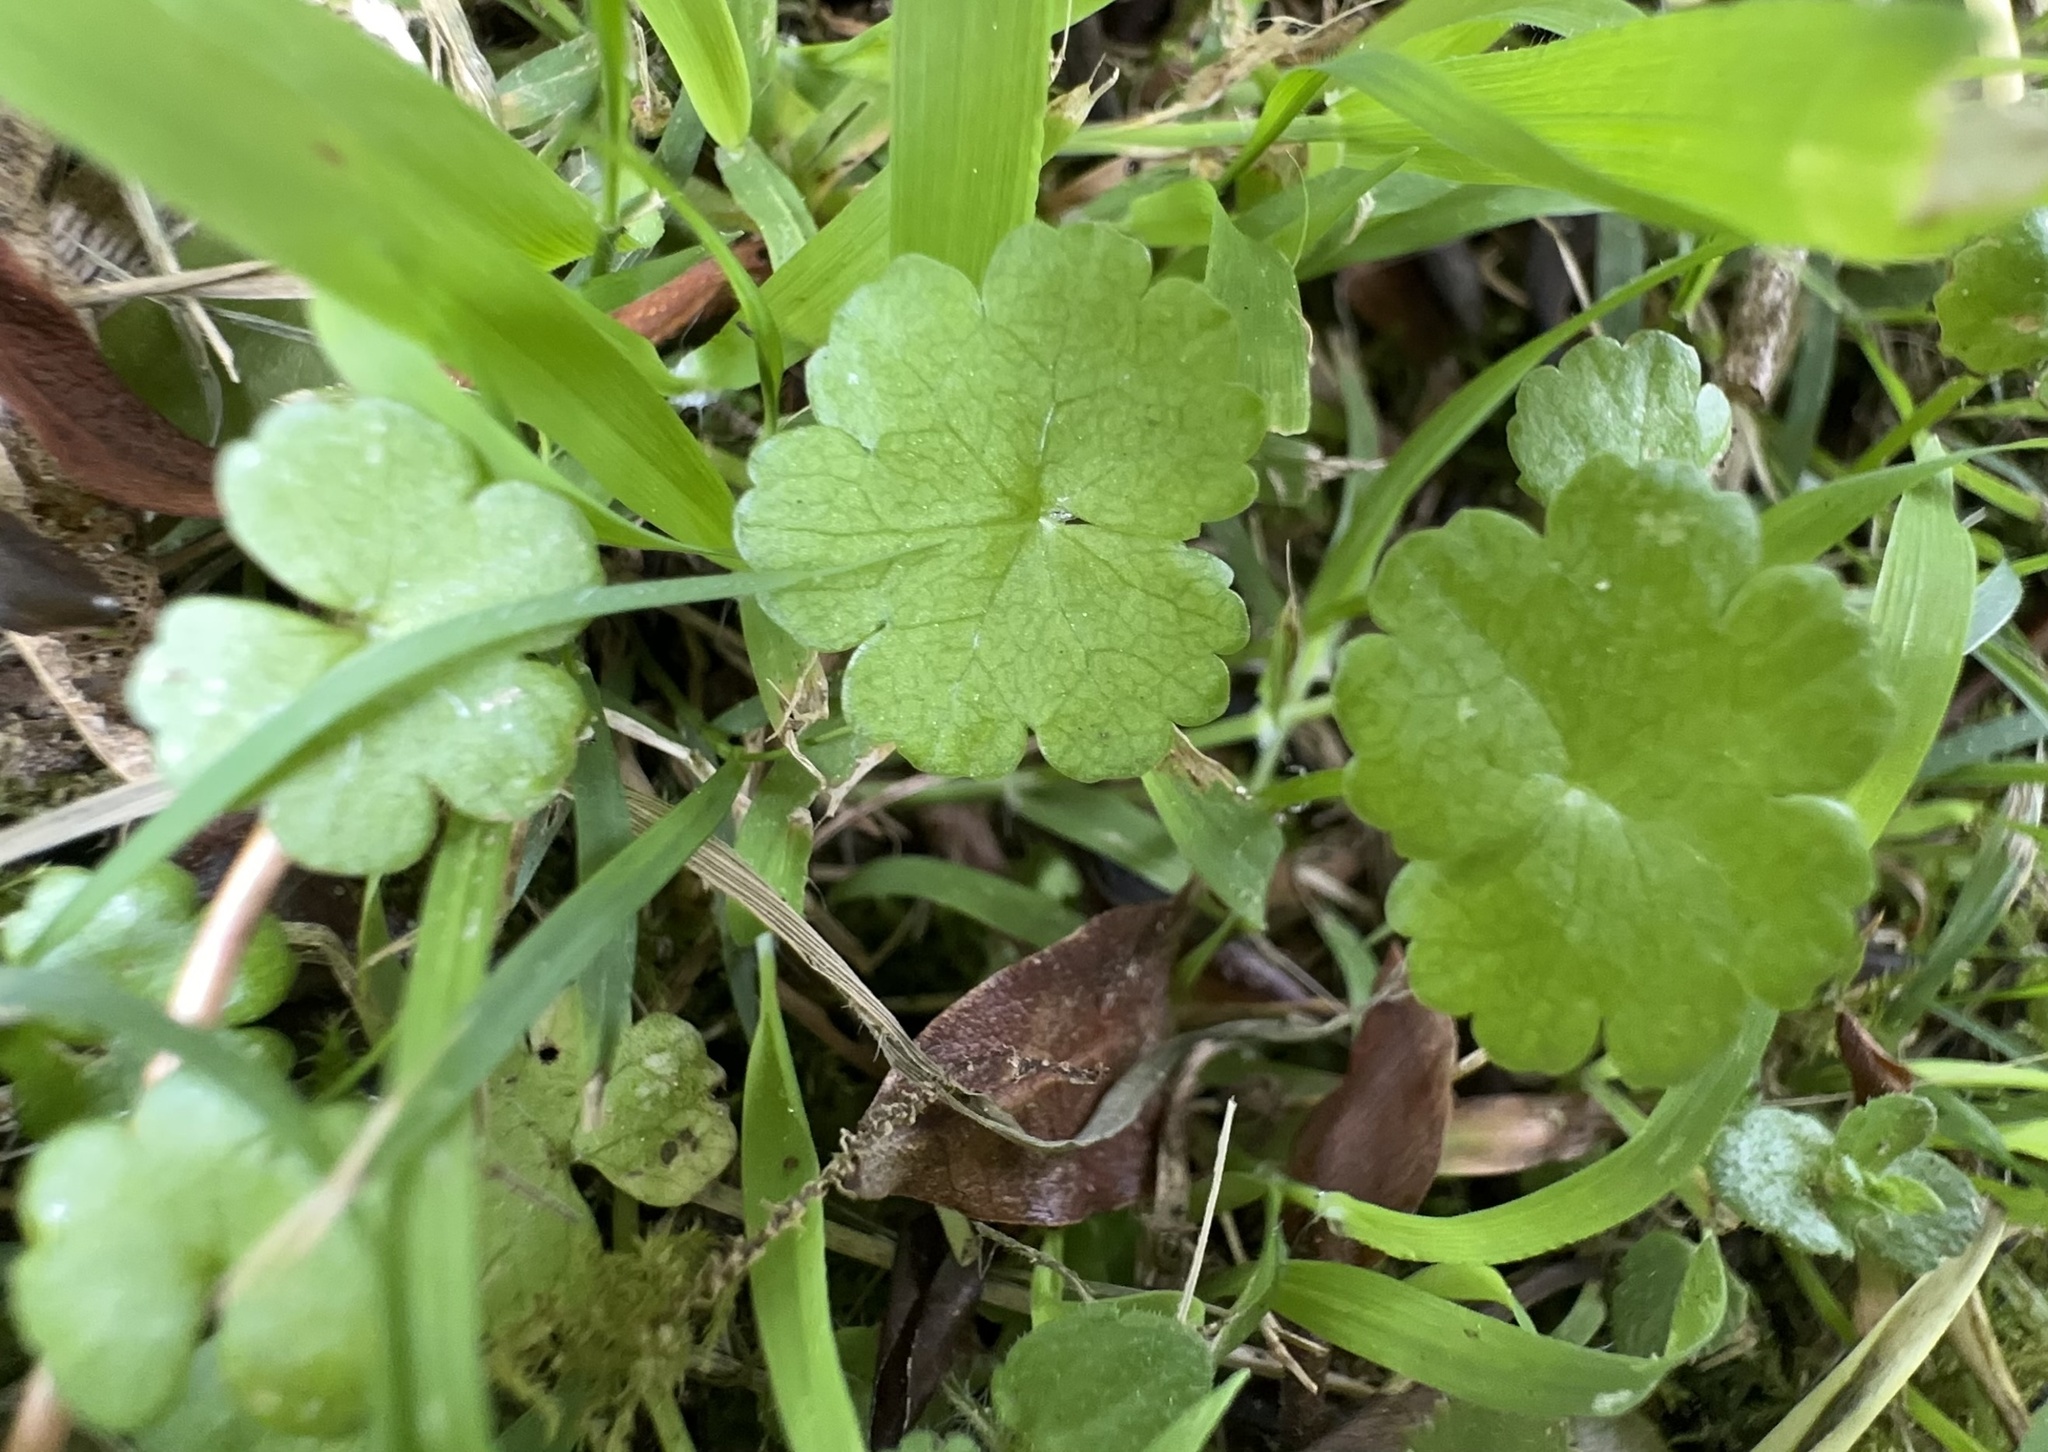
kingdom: Plantae
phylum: Tracheophyta
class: Magnoliopsida
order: Apiales
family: Araliaceae
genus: Hydrocotyle
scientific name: Hydrocotyle heteromeria
